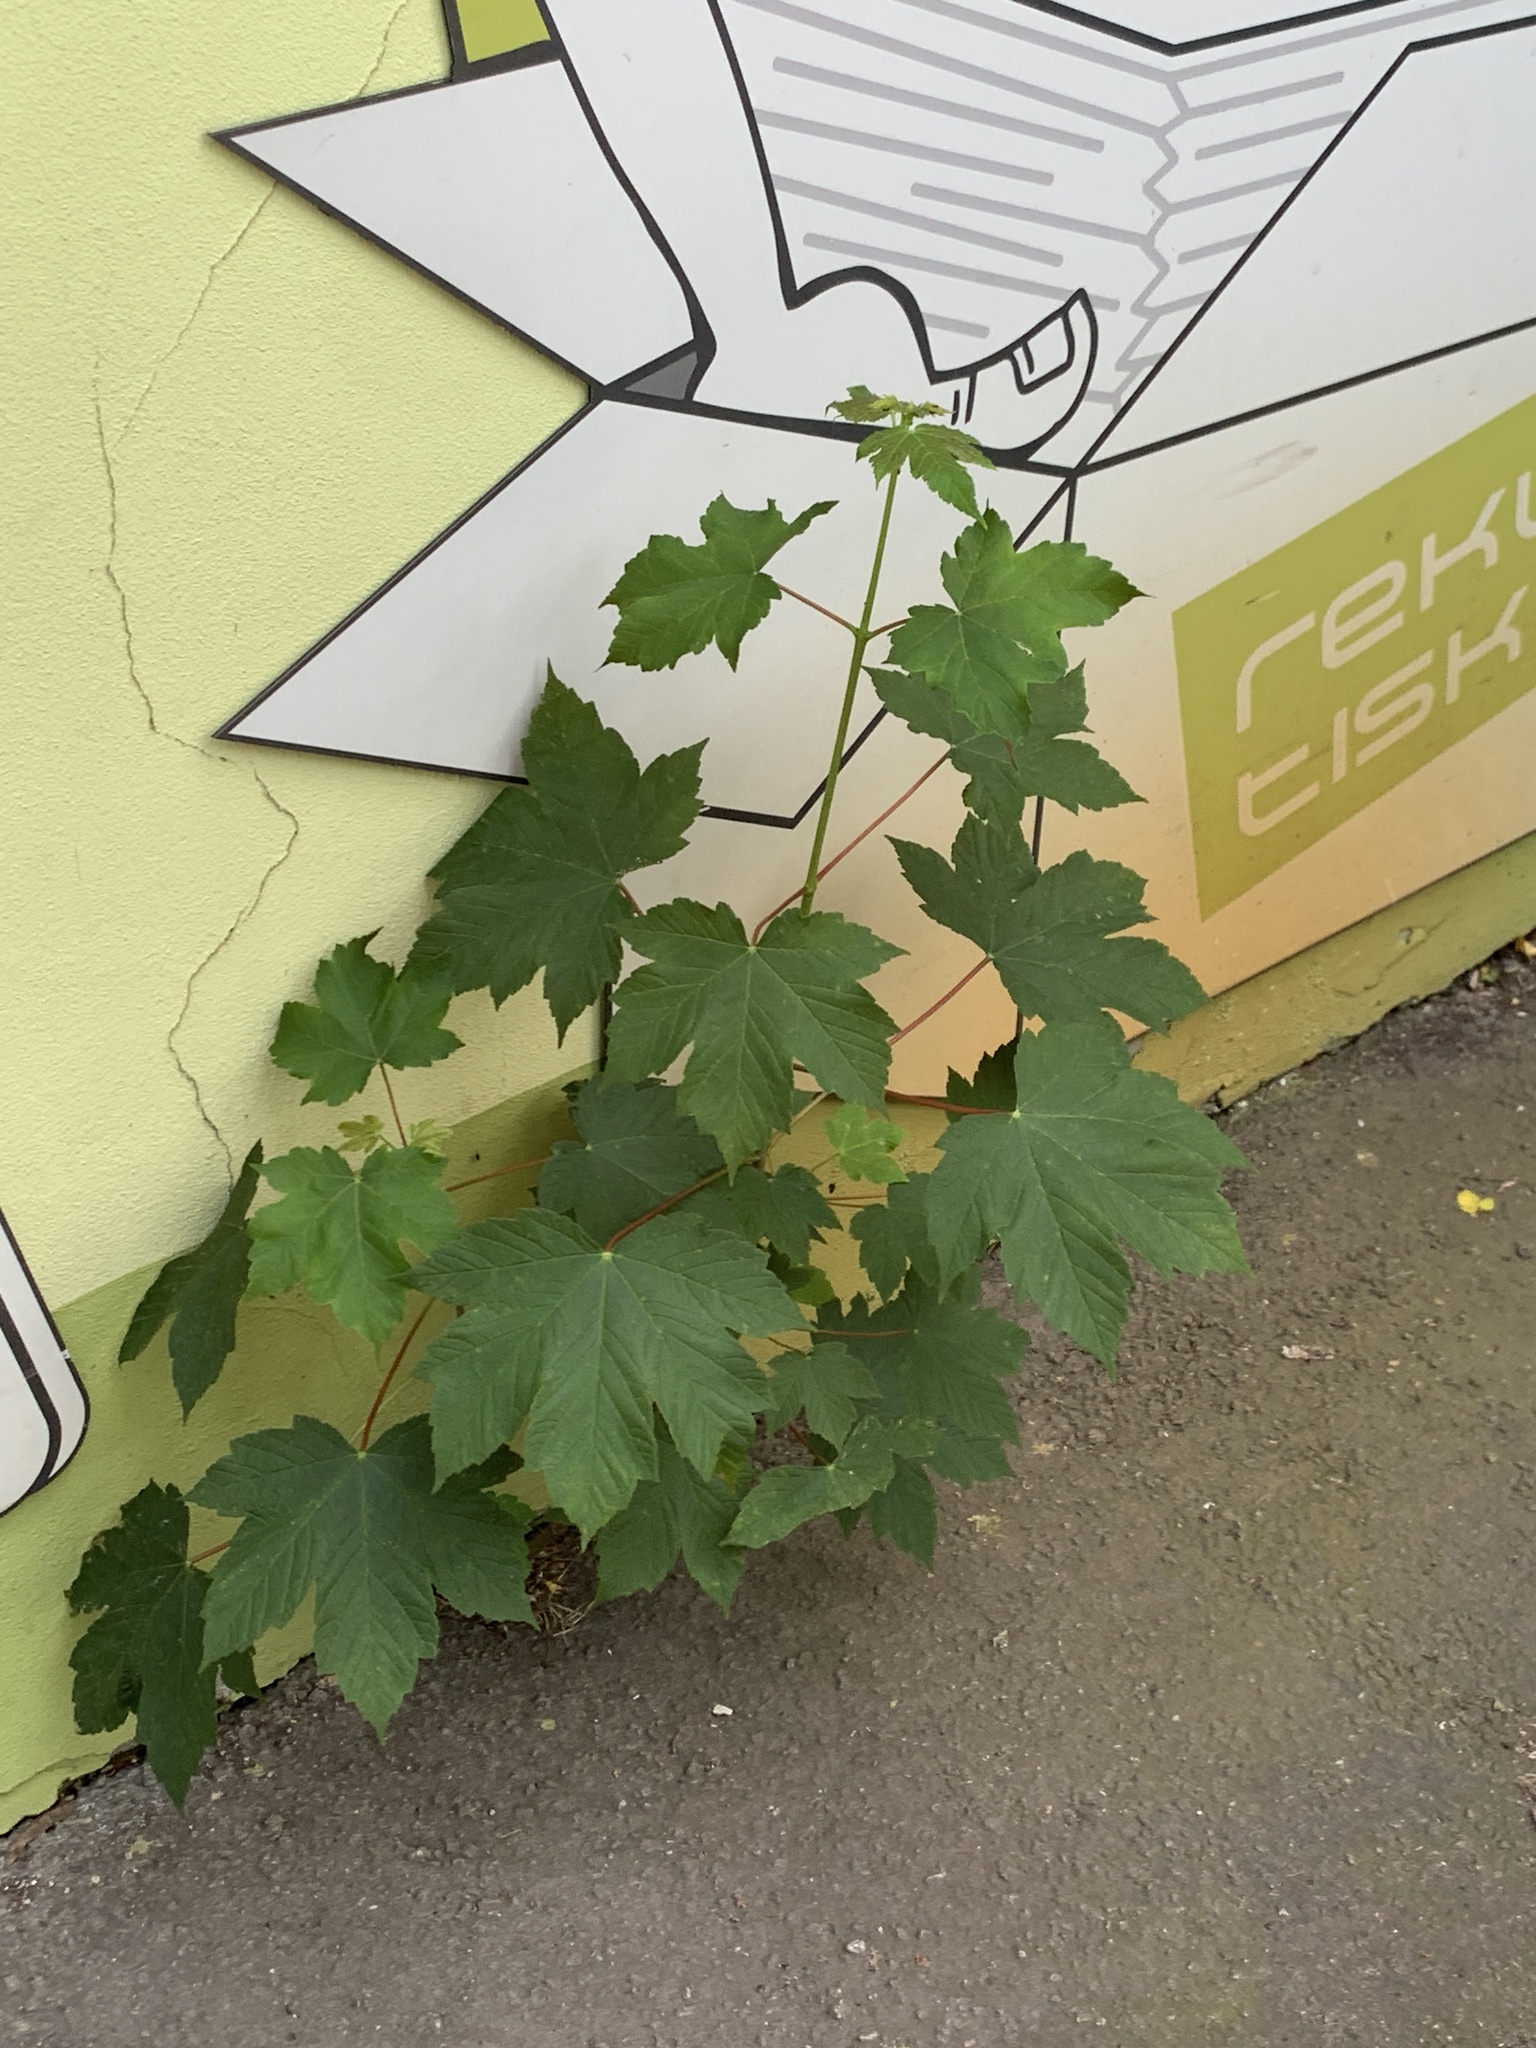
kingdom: Plantae
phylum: Tracheophyta
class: Magnoliopsida
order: Sapindales
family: Sapindaceae
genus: Acer
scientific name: Acer pseudoplatanus
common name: Sycamore
